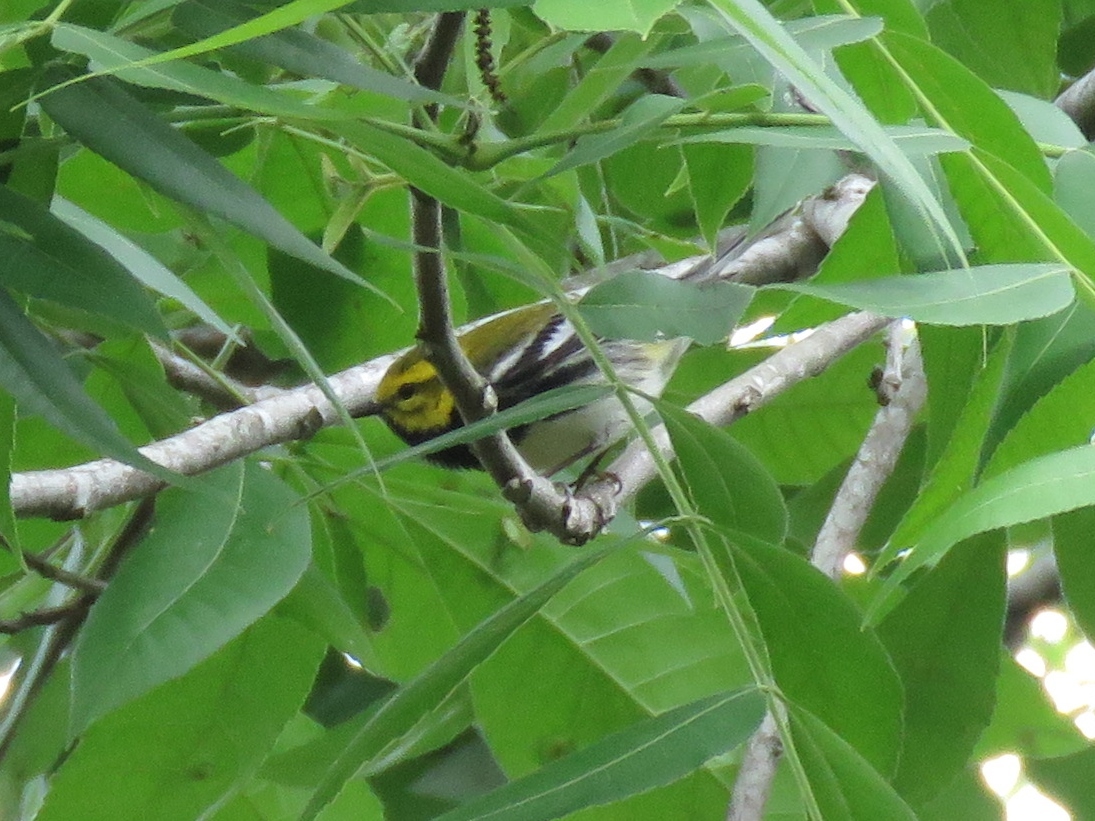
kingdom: Animalia
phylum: Chordata
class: Aves
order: Passeriformes
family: Parulidae
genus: Setophaga
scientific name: Setophaga virens
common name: Black-throated green warbler
